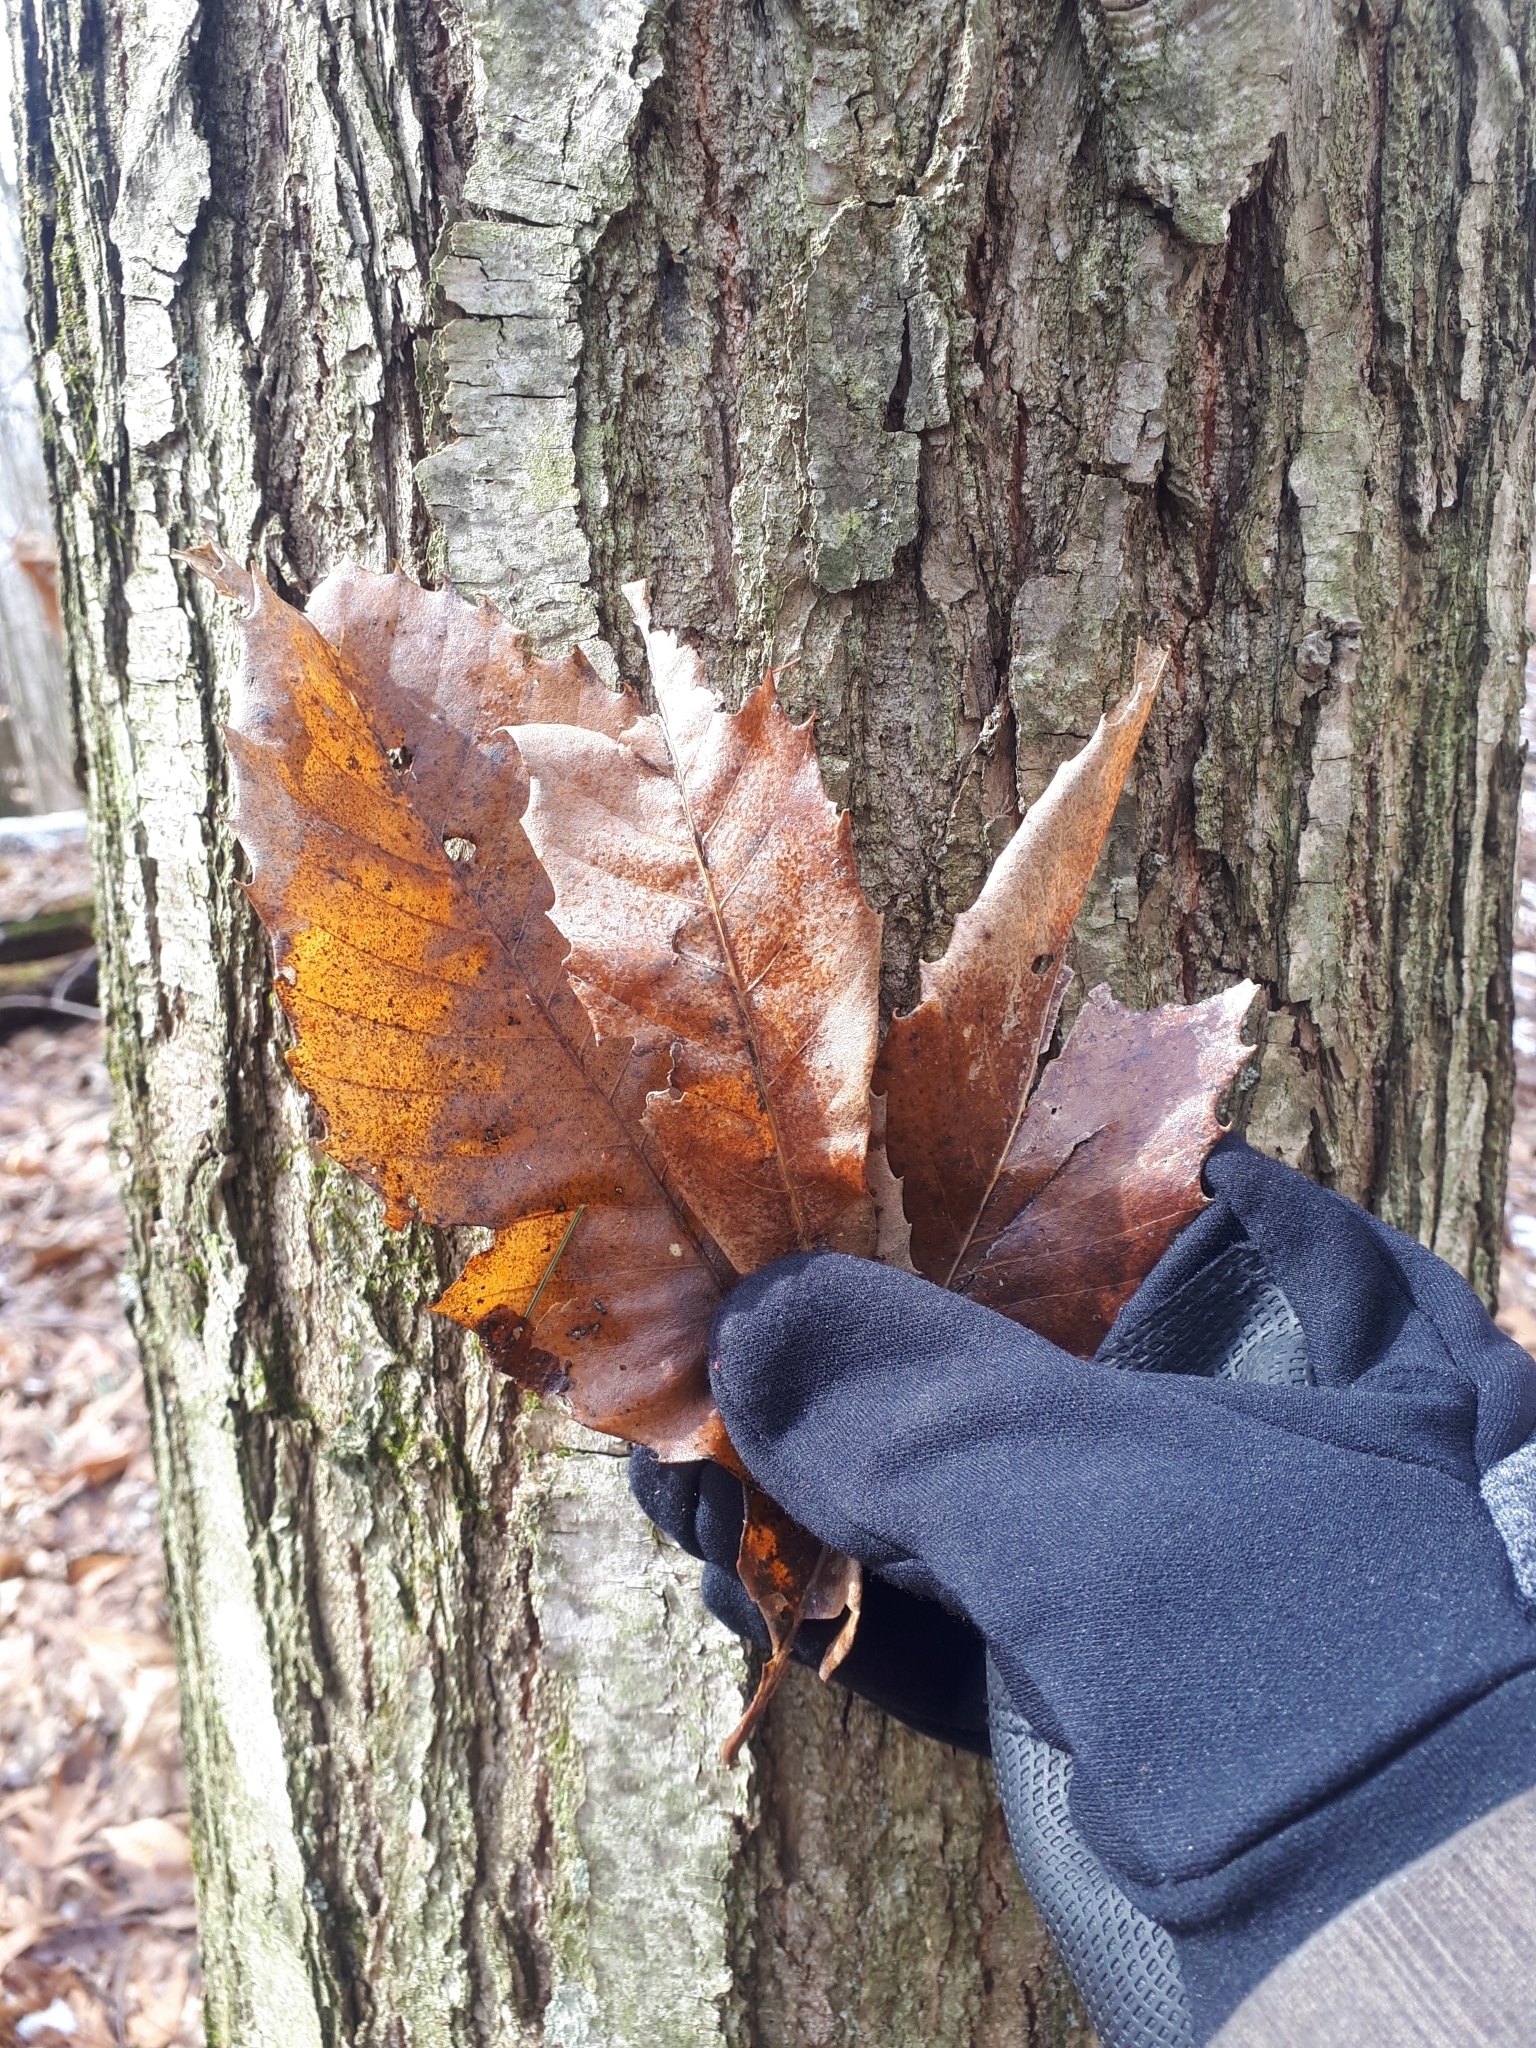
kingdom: Plantae
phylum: Tracheophyta
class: Magnoliopsida
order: Fagales
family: Fagaceae
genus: Castanea
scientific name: Castanea dentata
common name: American chestnut
